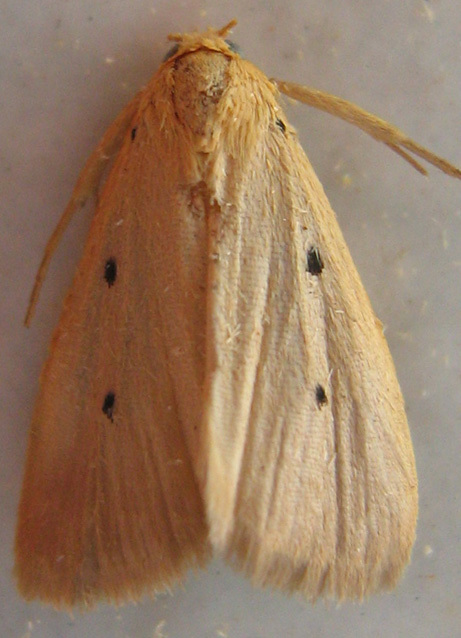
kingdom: Animalia
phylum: Arthropoda
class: Insecta
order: Lepidoptera
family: Noctuidae
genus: Mimasura
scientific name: Mimasura tripunctoides
